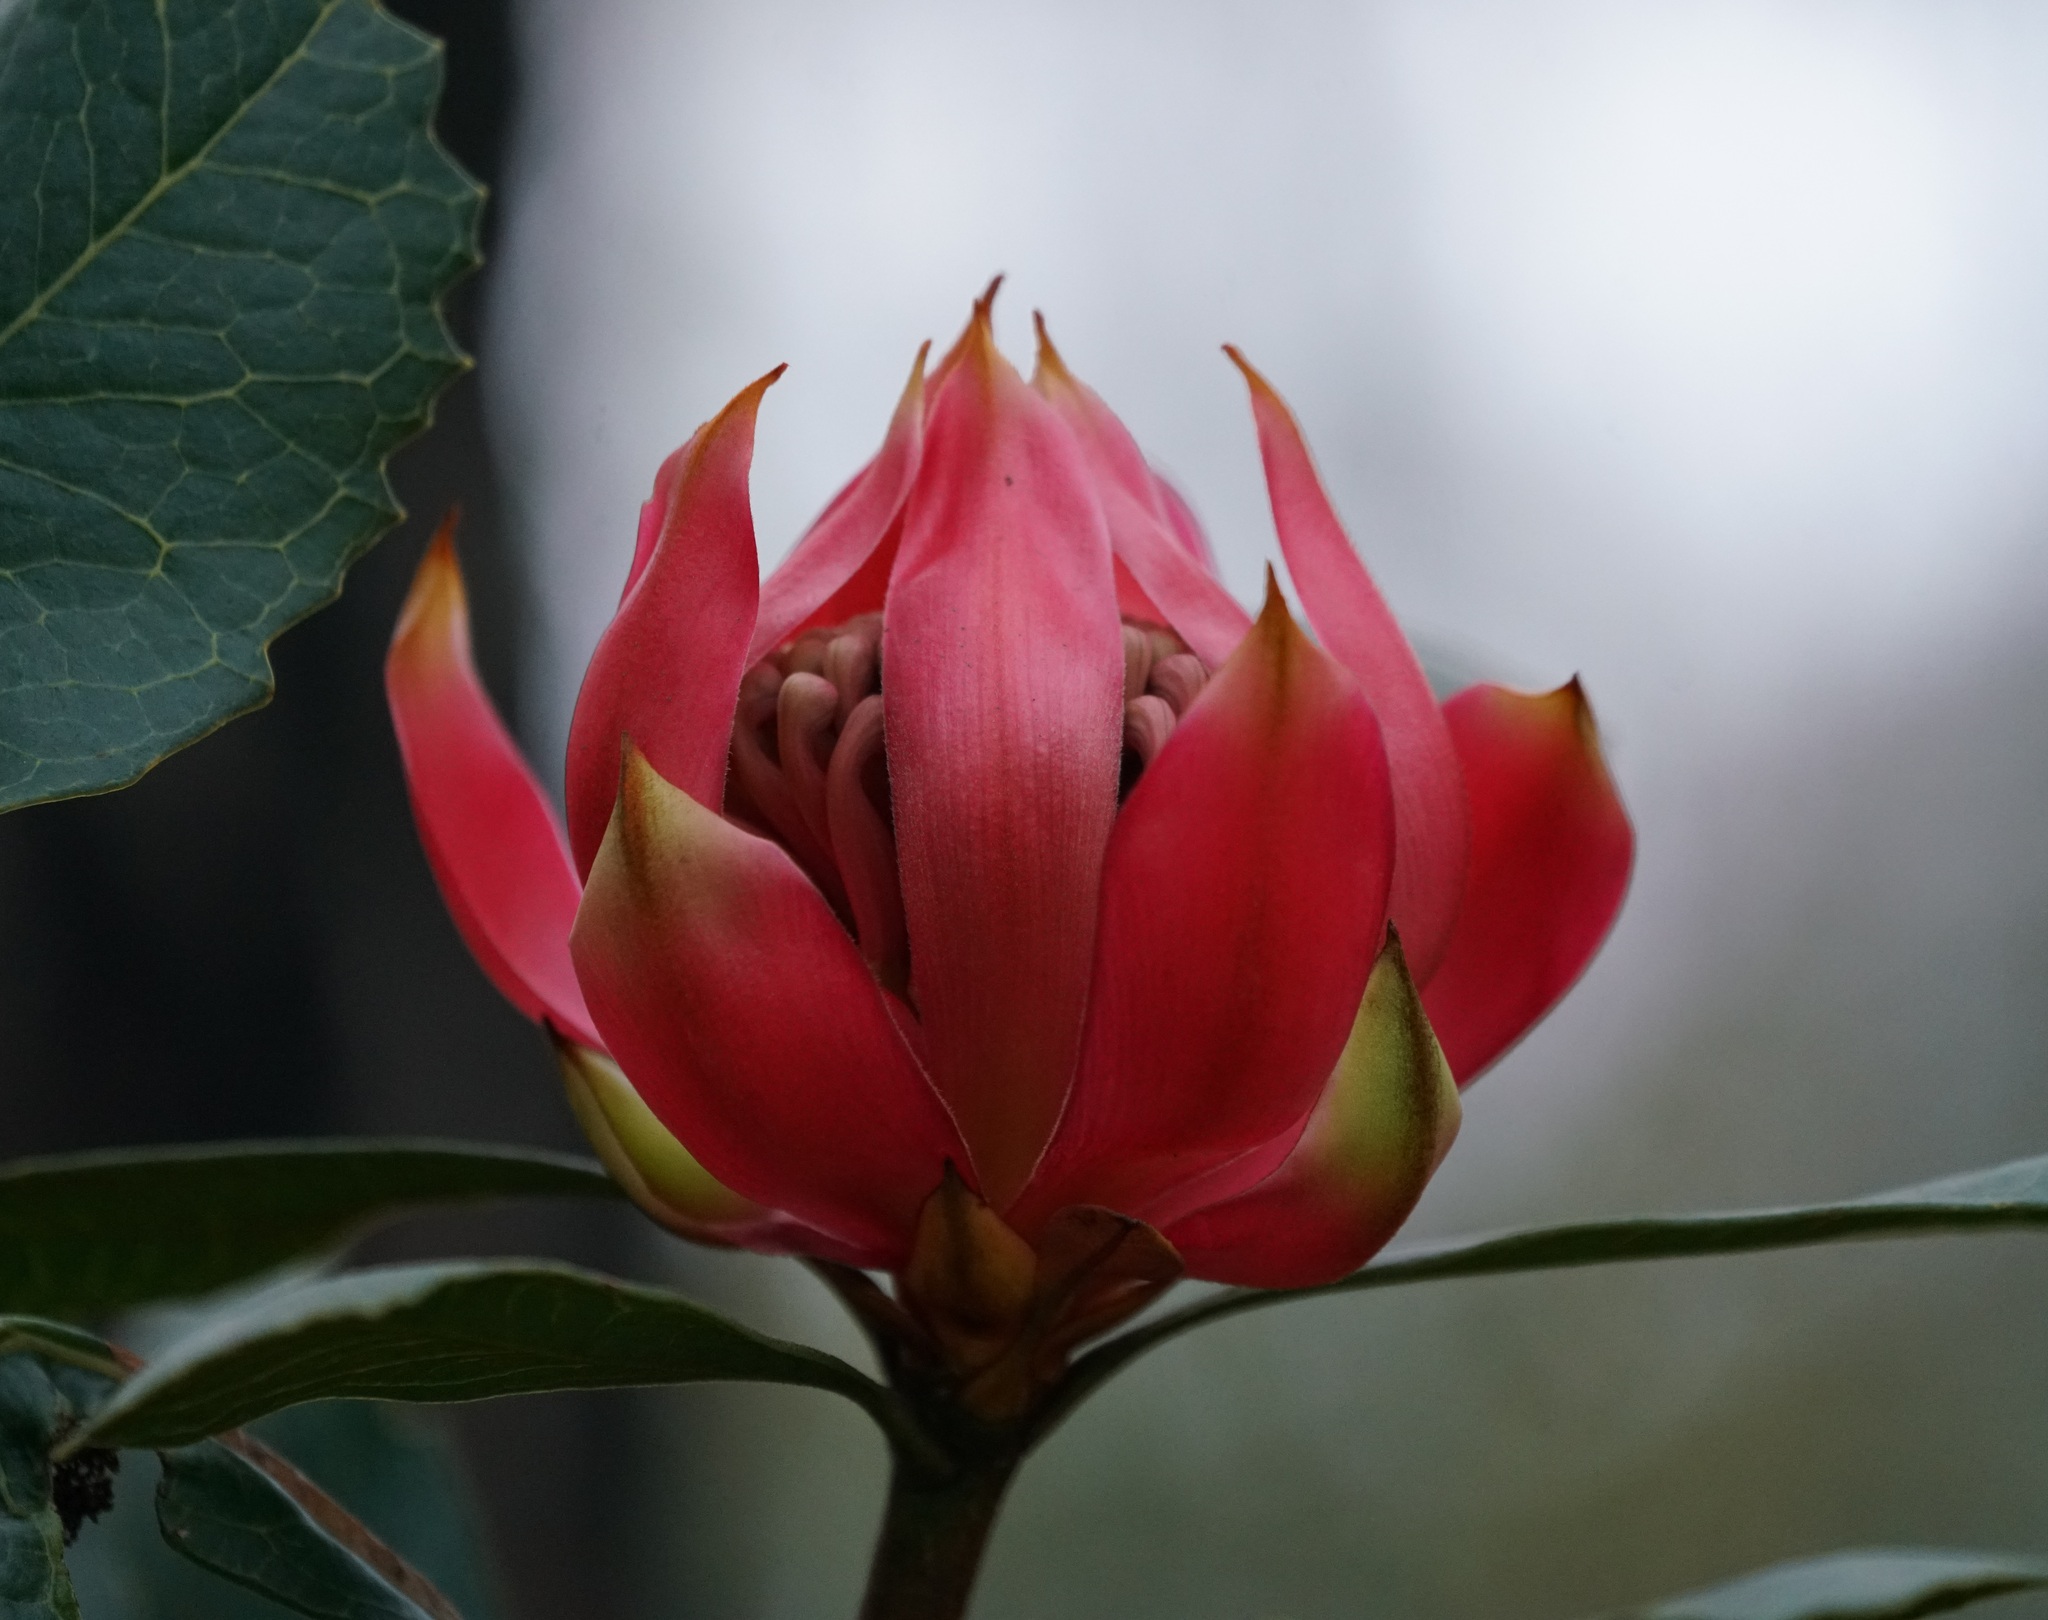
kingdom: Plantae
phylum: Tracheophyta
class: Magnoliopsida
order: Proteales
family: Proteaceae
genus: Telopea
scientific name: Telopea speciosissima
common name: New south wales waratah
